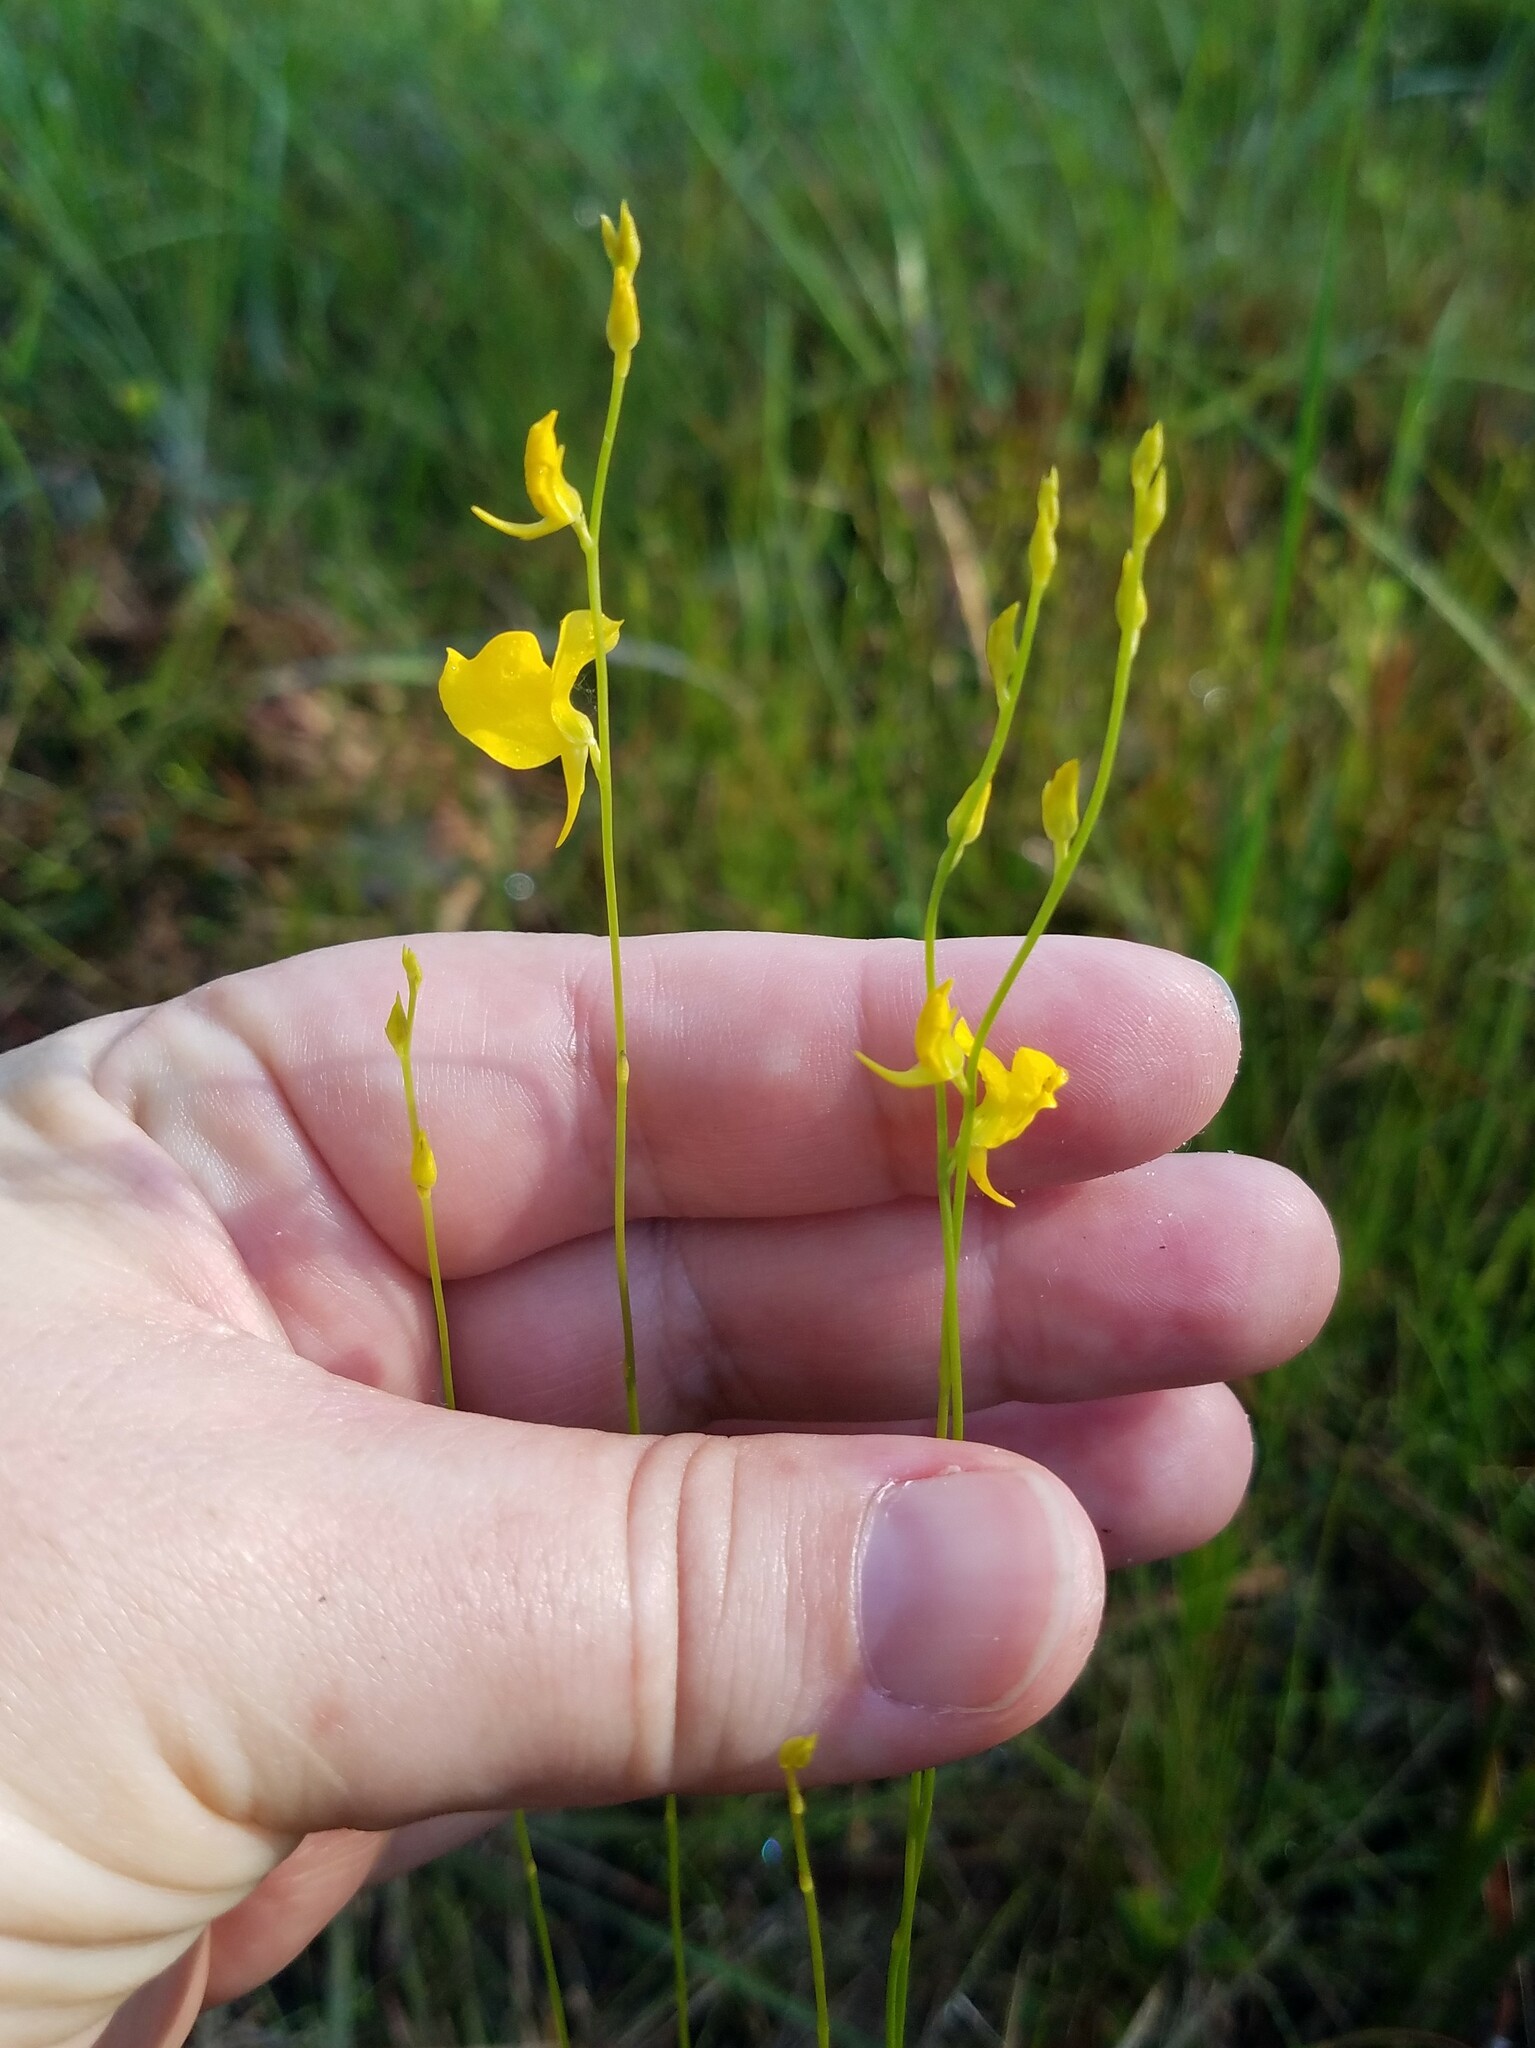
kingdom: Plantae
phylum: Tracheophyta
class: Magnoliopsida
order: Lamiales
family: Lentibulariaceae
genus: Utricularia
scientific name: Utricularia juncea
